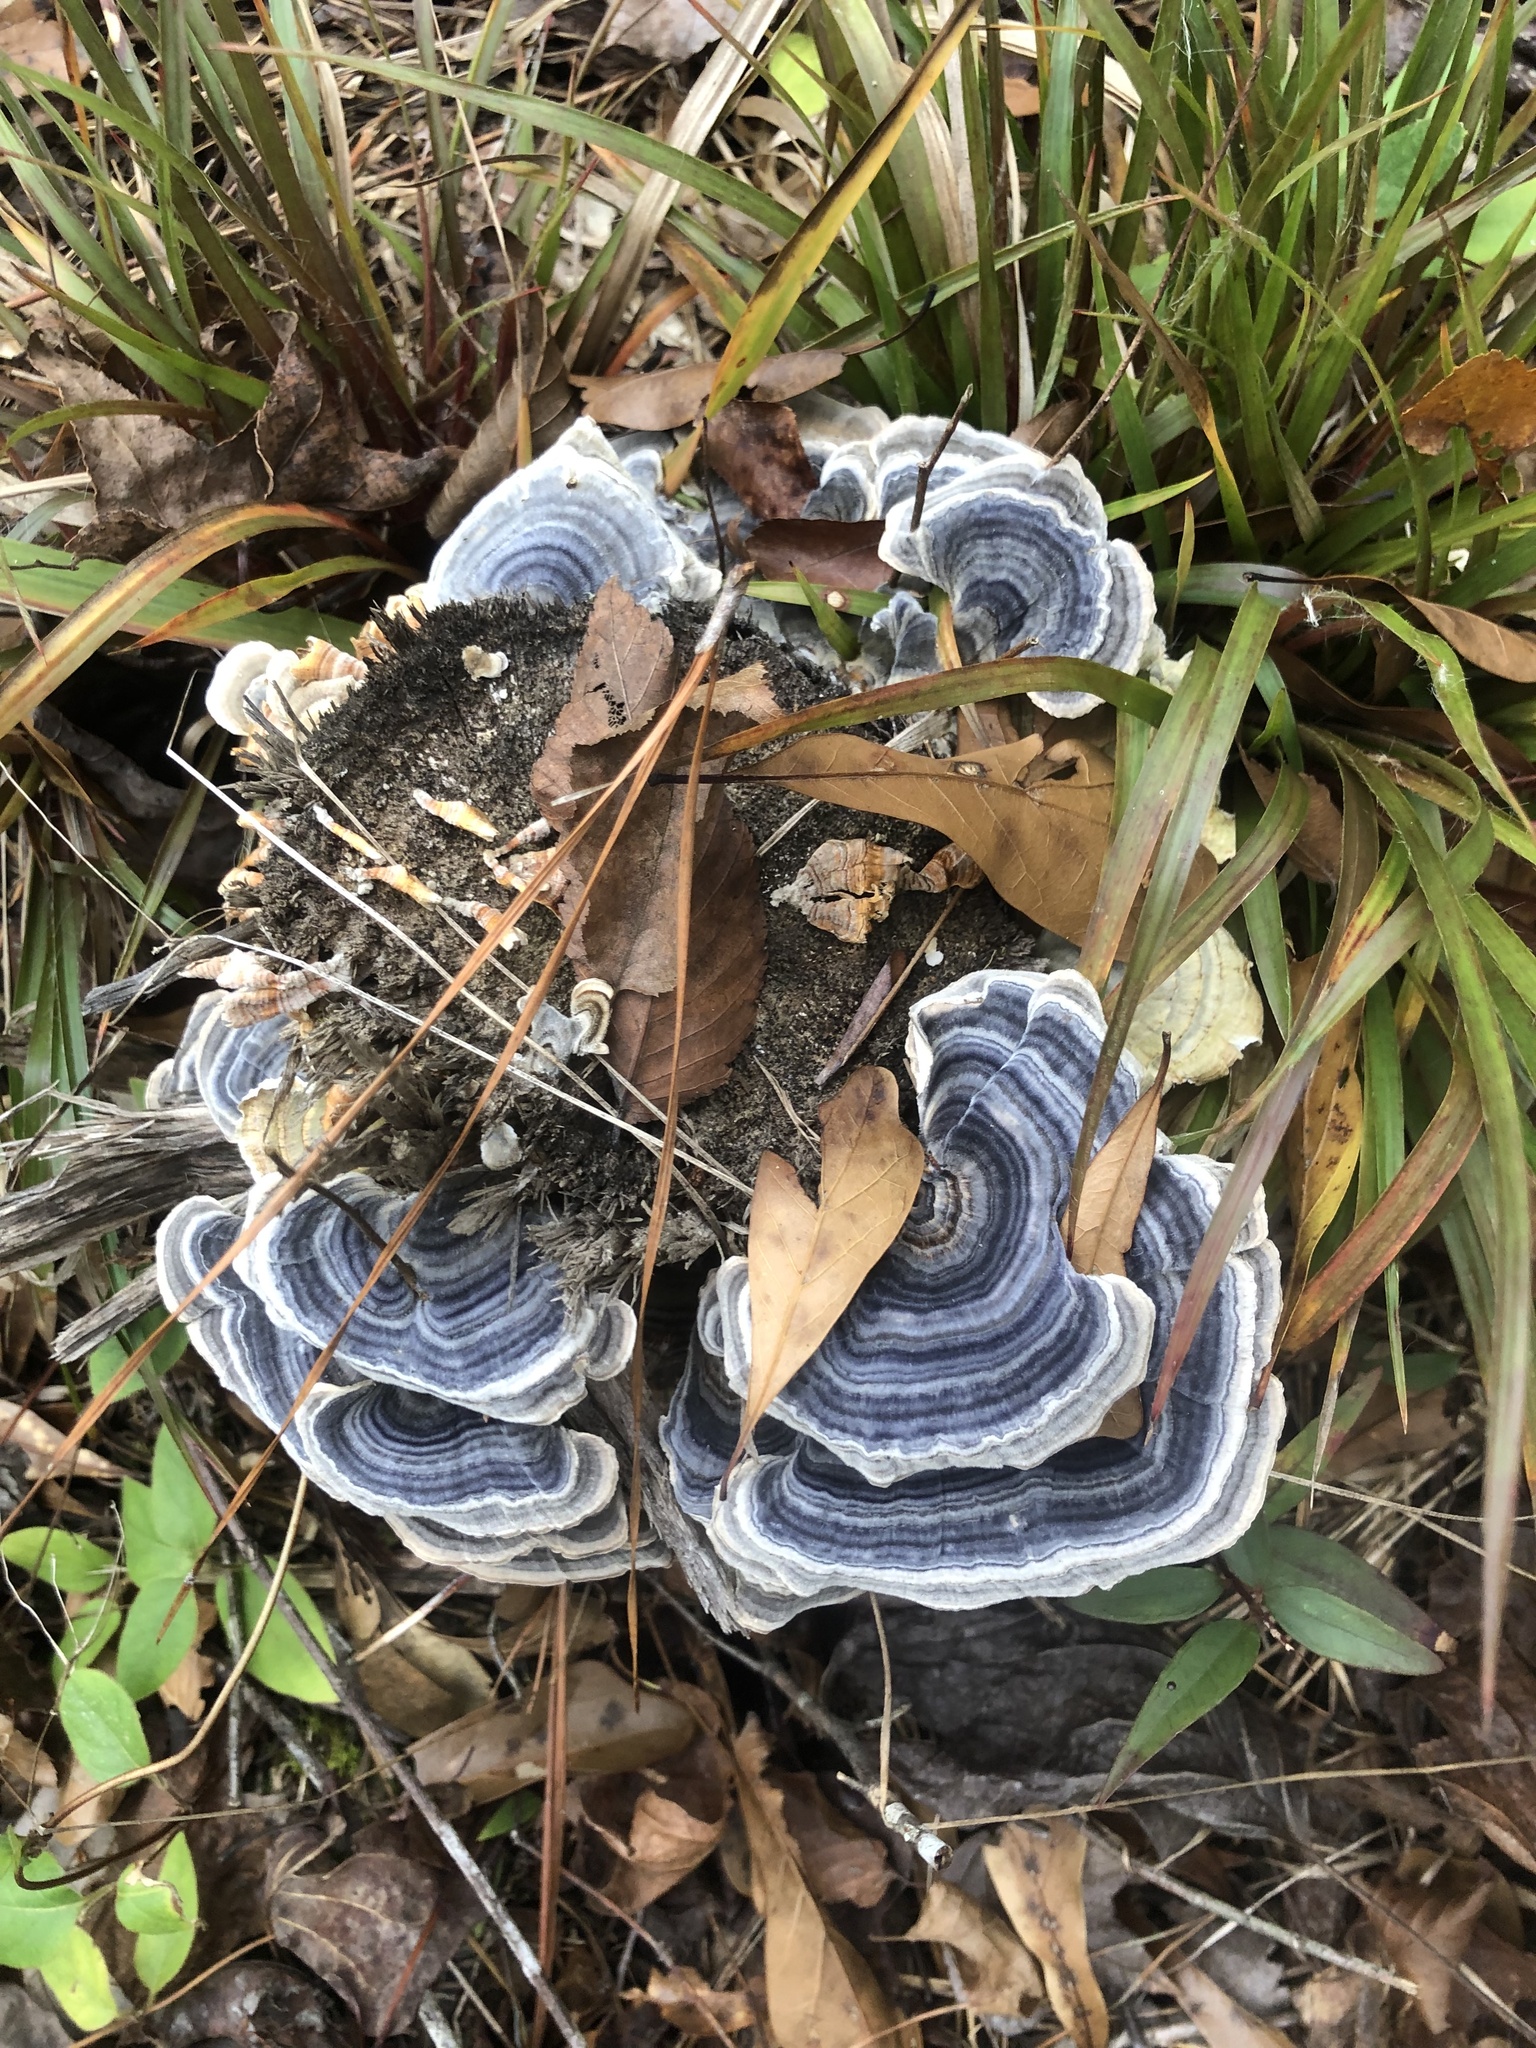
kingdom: Fungi
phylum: Basidiomycota
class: Agaricomycetes
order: Polyporales
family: Polyporaceae
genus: Trametes
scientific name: Trametes versicolor
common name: Turkeytail
